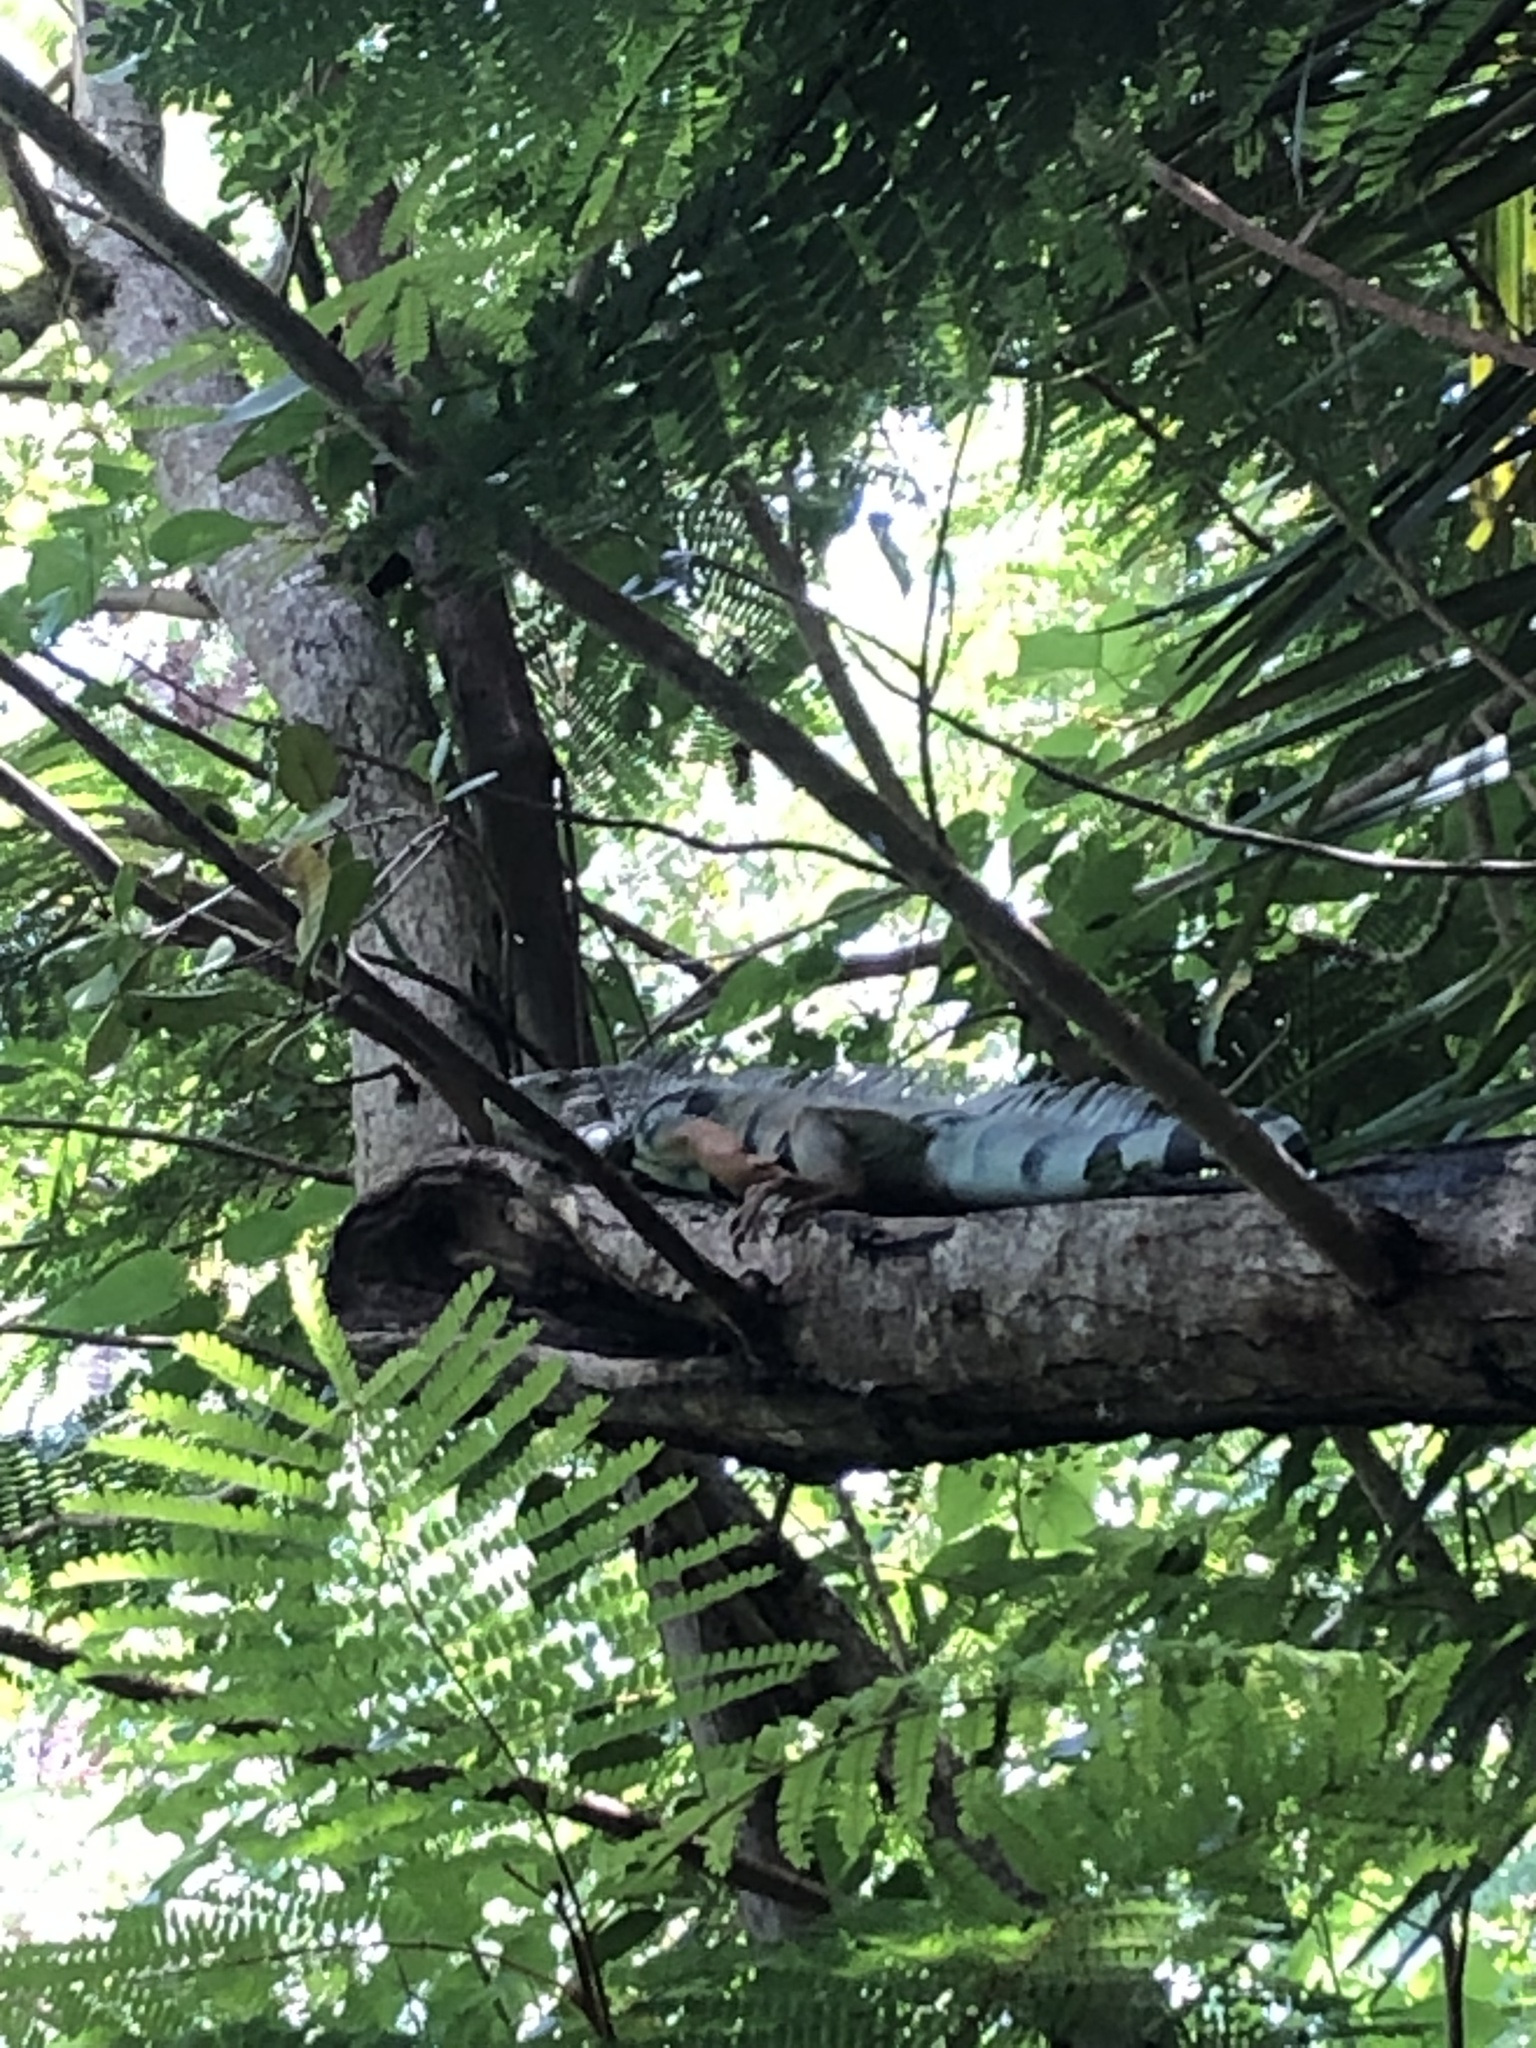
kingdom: Animalia
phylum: Chordata
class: Squamata
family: Iguanidae
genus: Iguana
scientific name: Iguana iguana
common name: Green iguana
